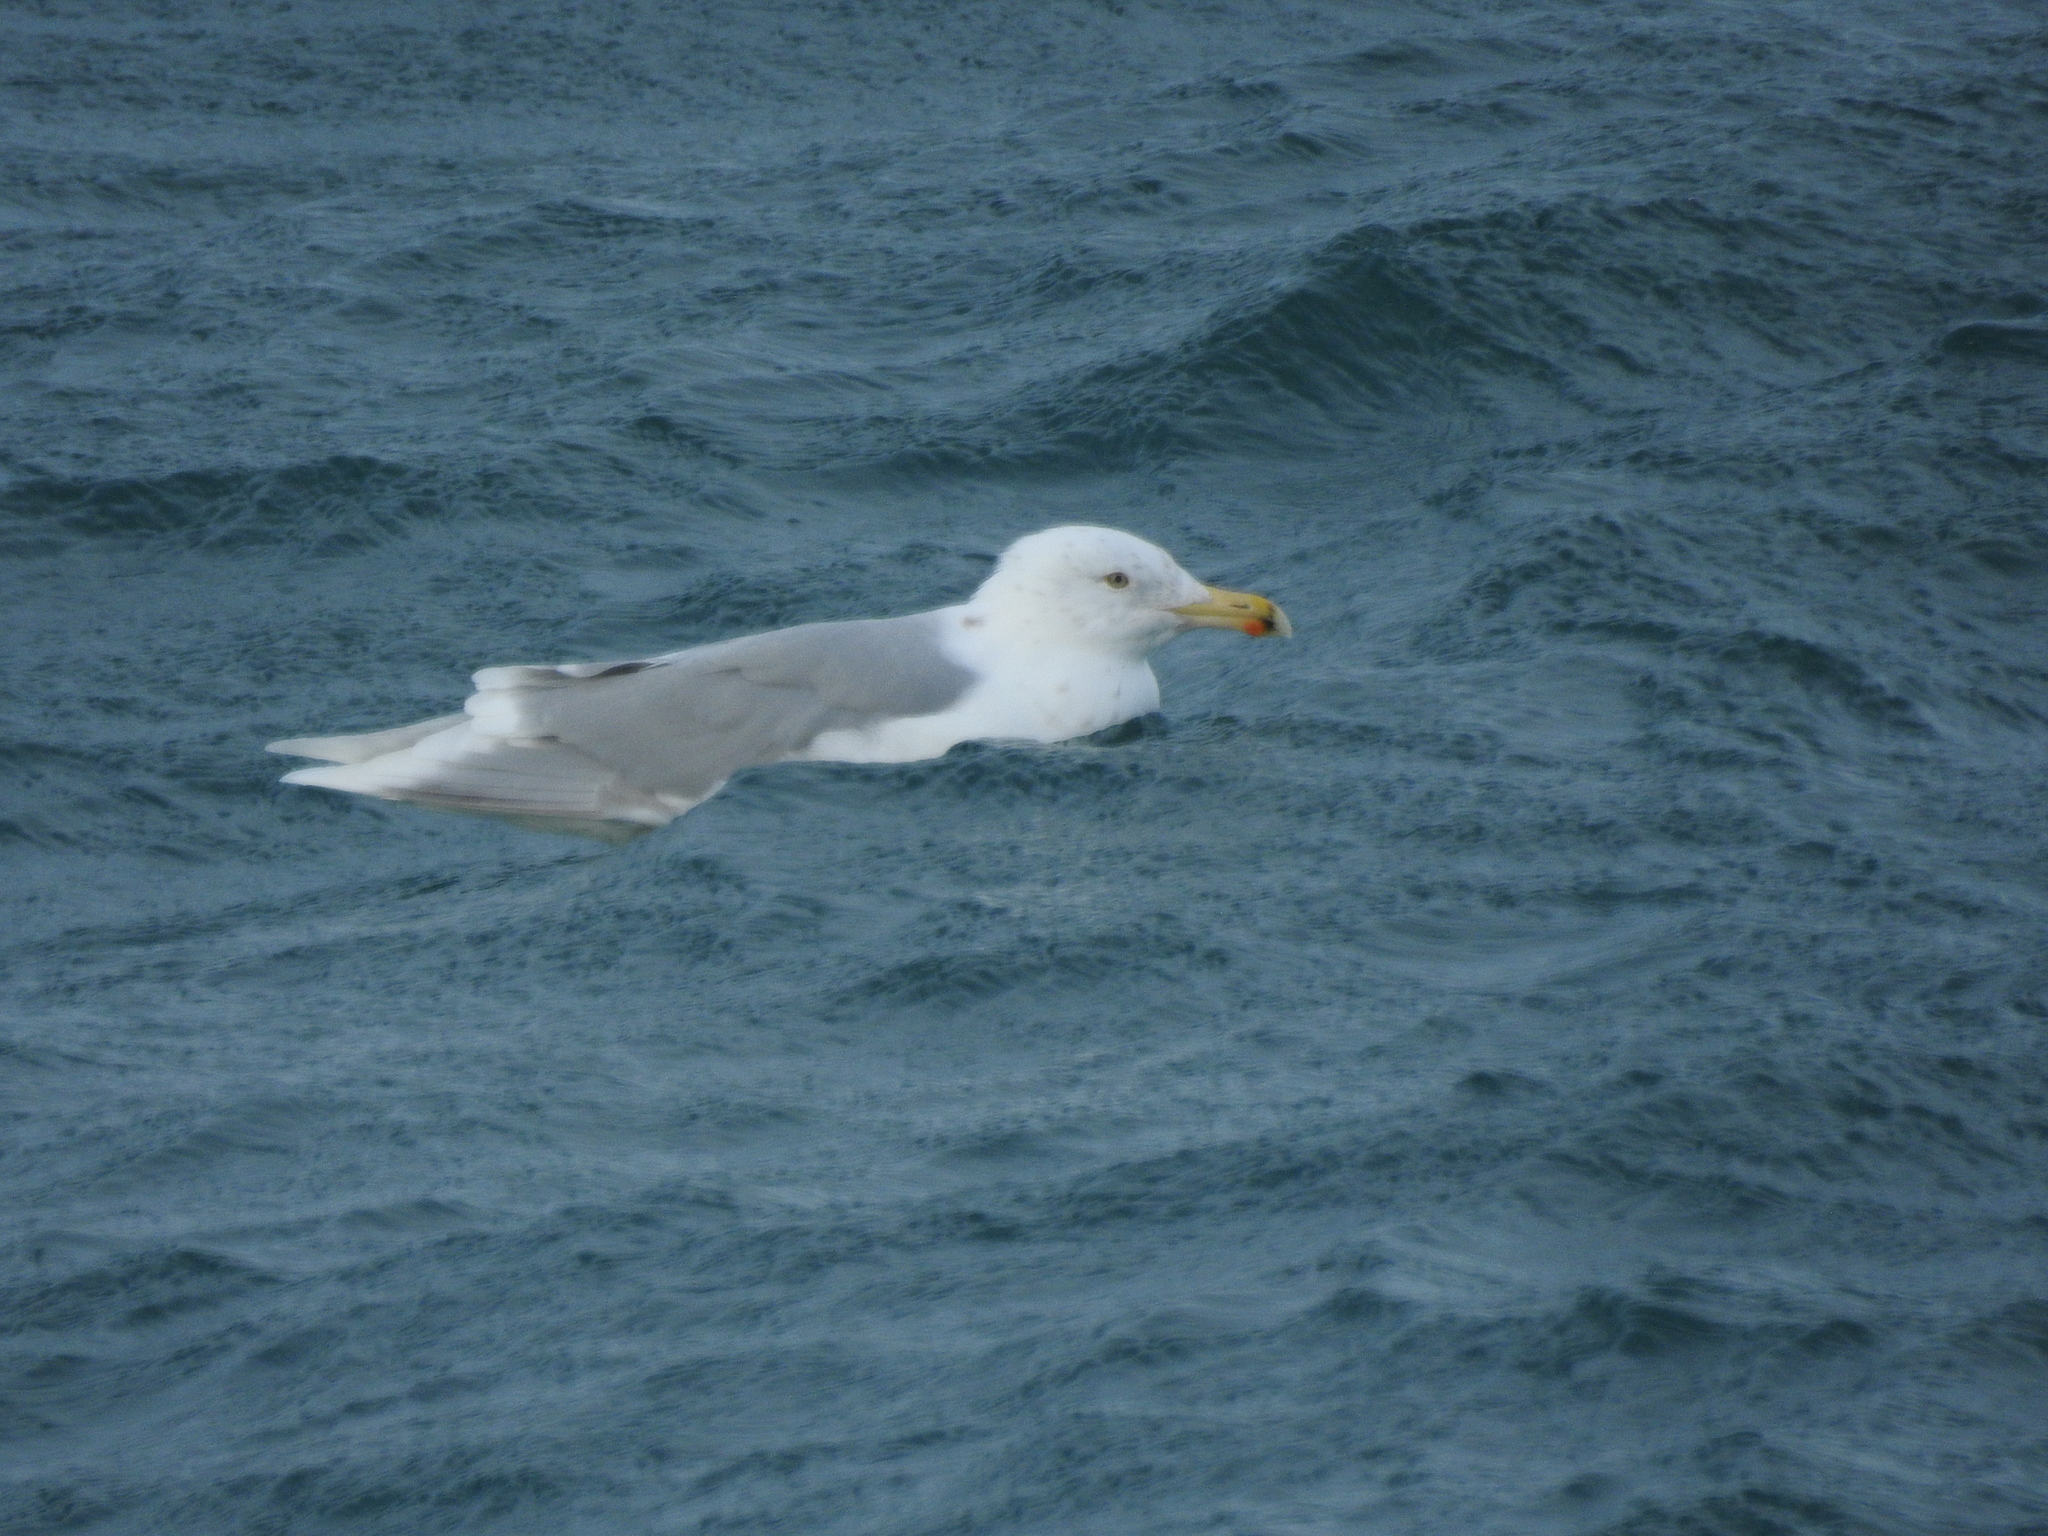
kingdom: Animalia
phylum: Chordata
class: Aves
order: Charadriiformes
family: Laridae
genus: Larus
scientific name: Larus hyperboreus
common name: Glaucous gull
